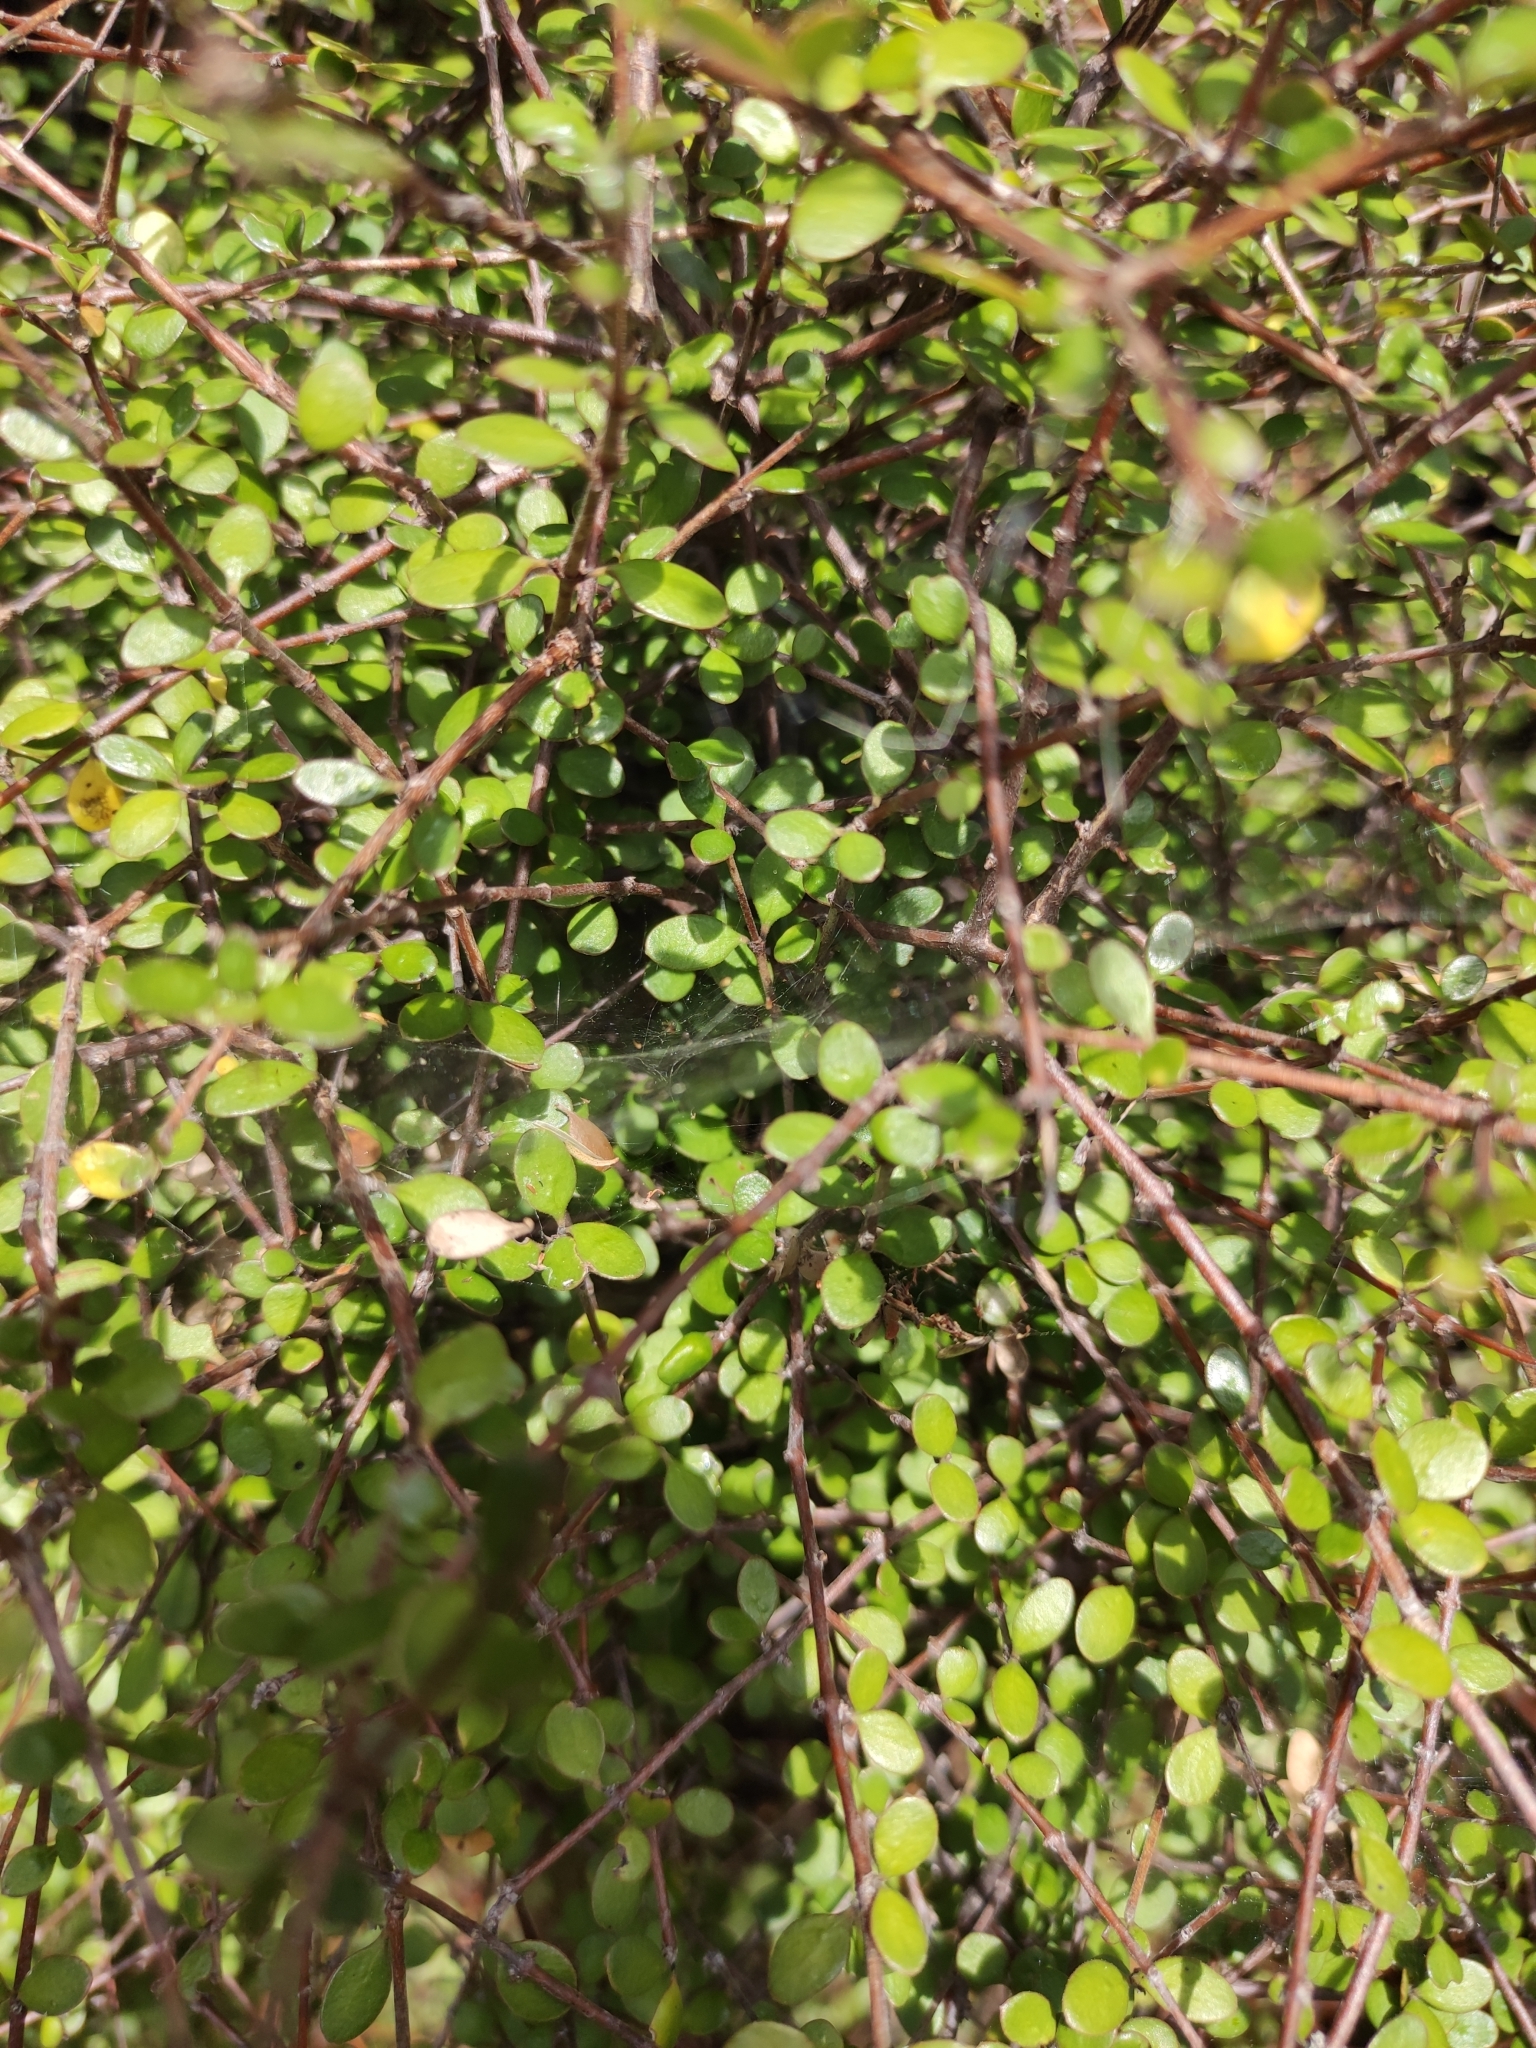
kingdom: Plantae
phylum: Tracheophyta
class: Magnoliopsida
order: Gentianales
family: Rubiaceae
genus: Coprosma
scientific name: Coprosma crassifolia
